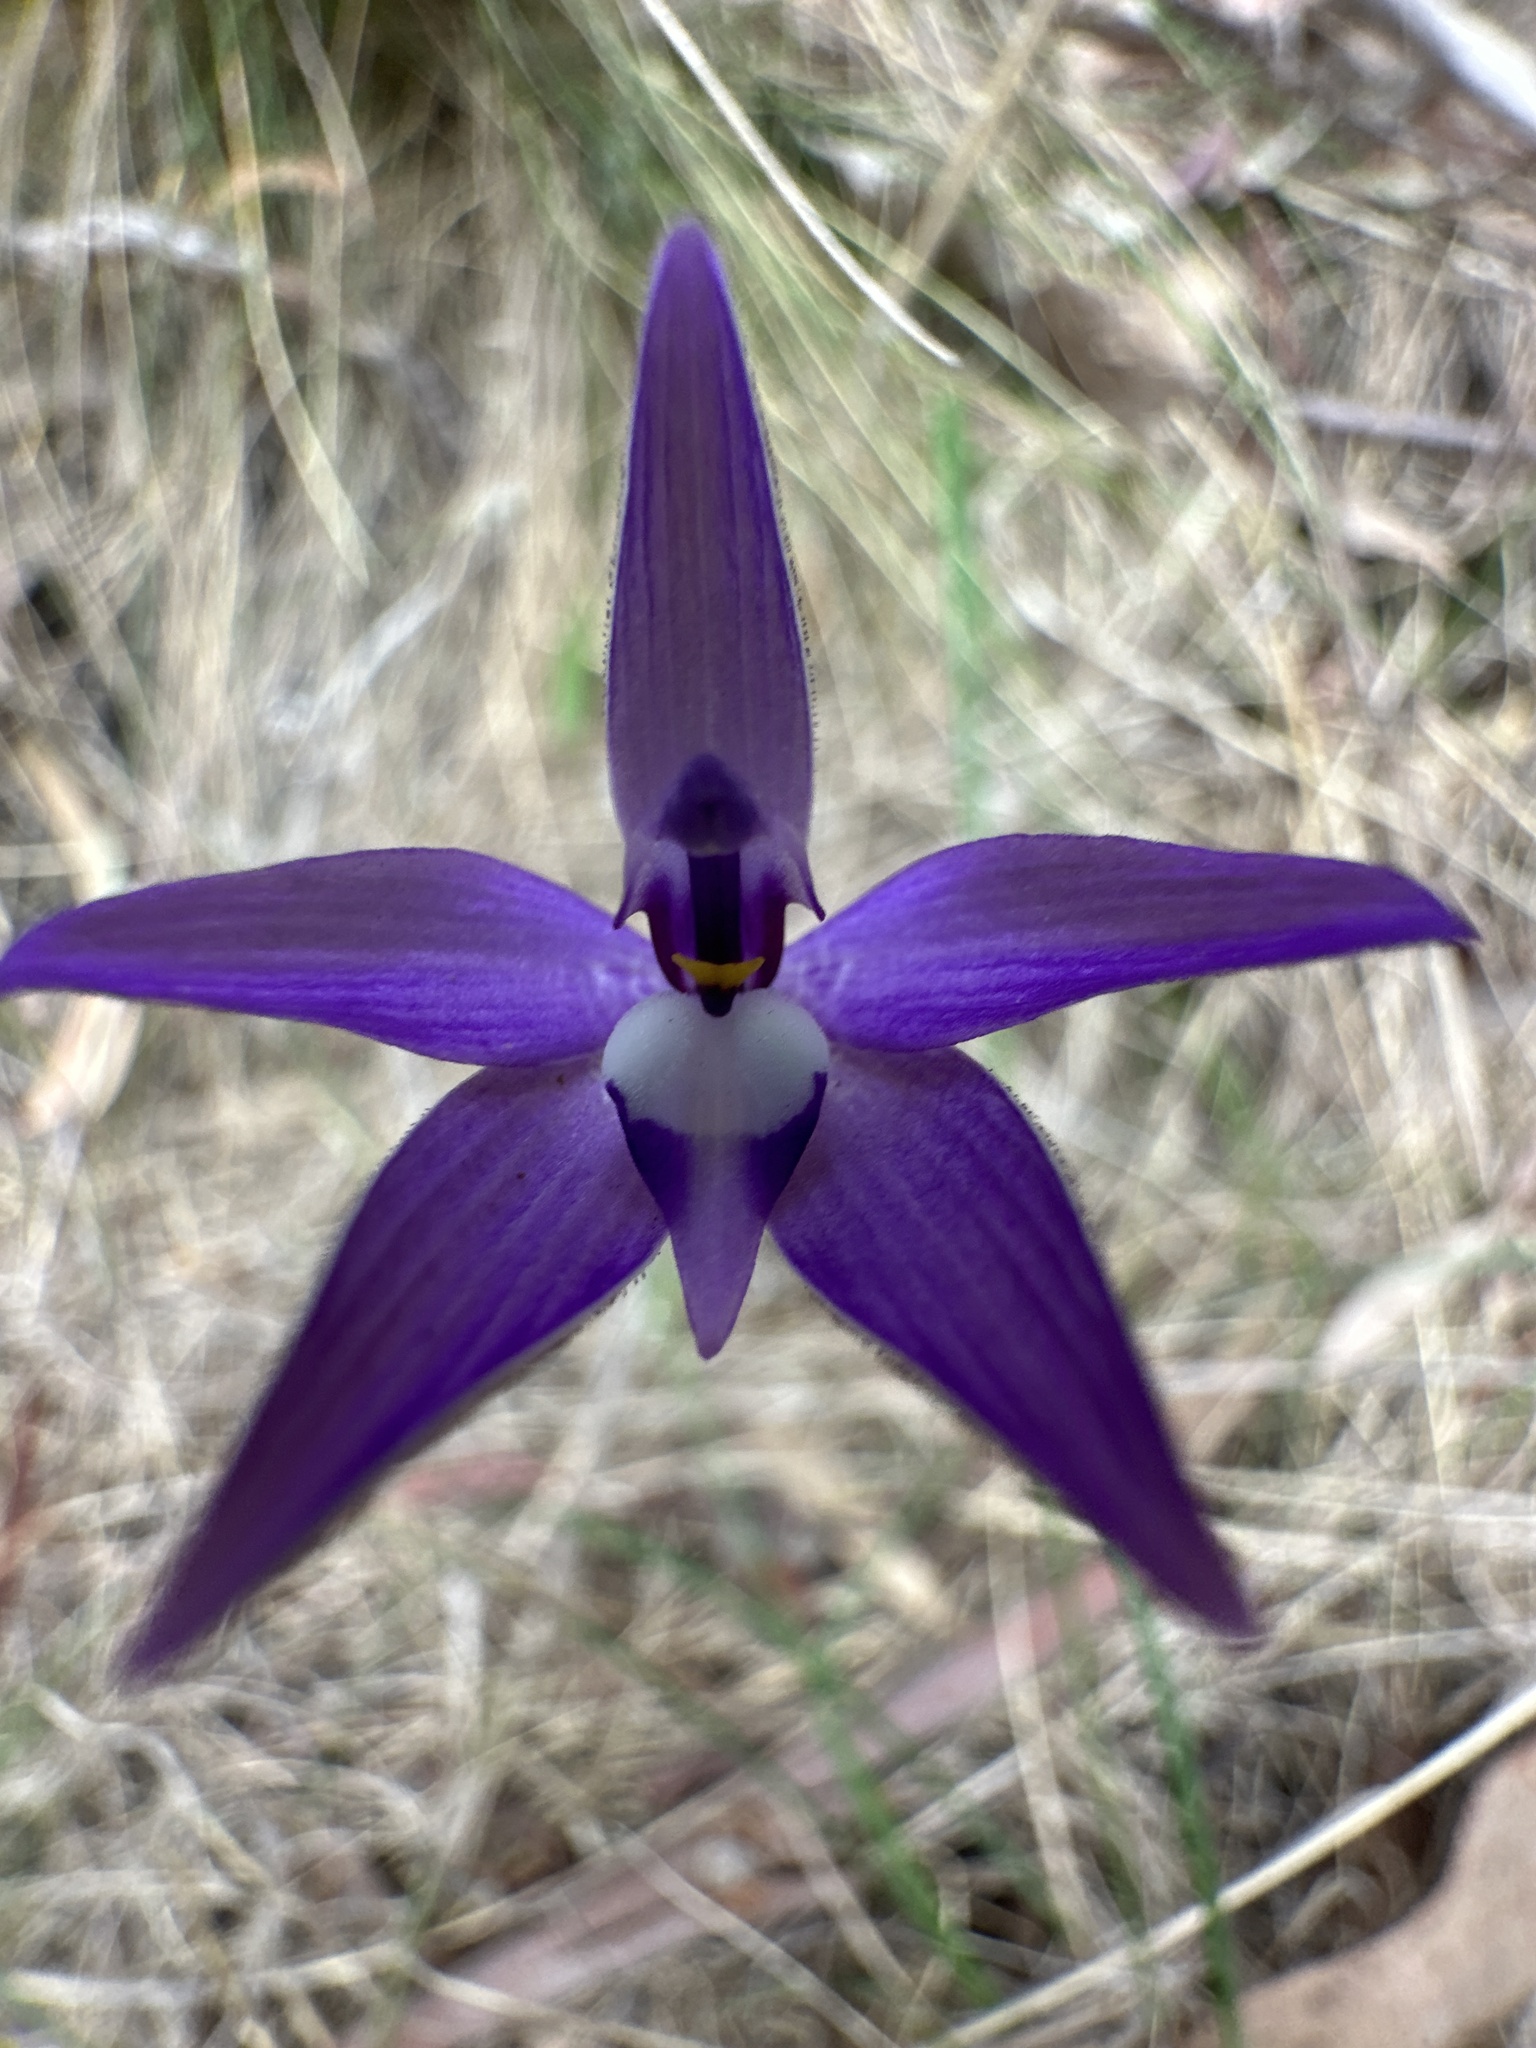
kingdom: Plantae
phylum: Tracheophyta
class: Liliopsida
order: Asparagales
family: Orchidaceae
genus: Caladenia
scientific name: Caladenia major
